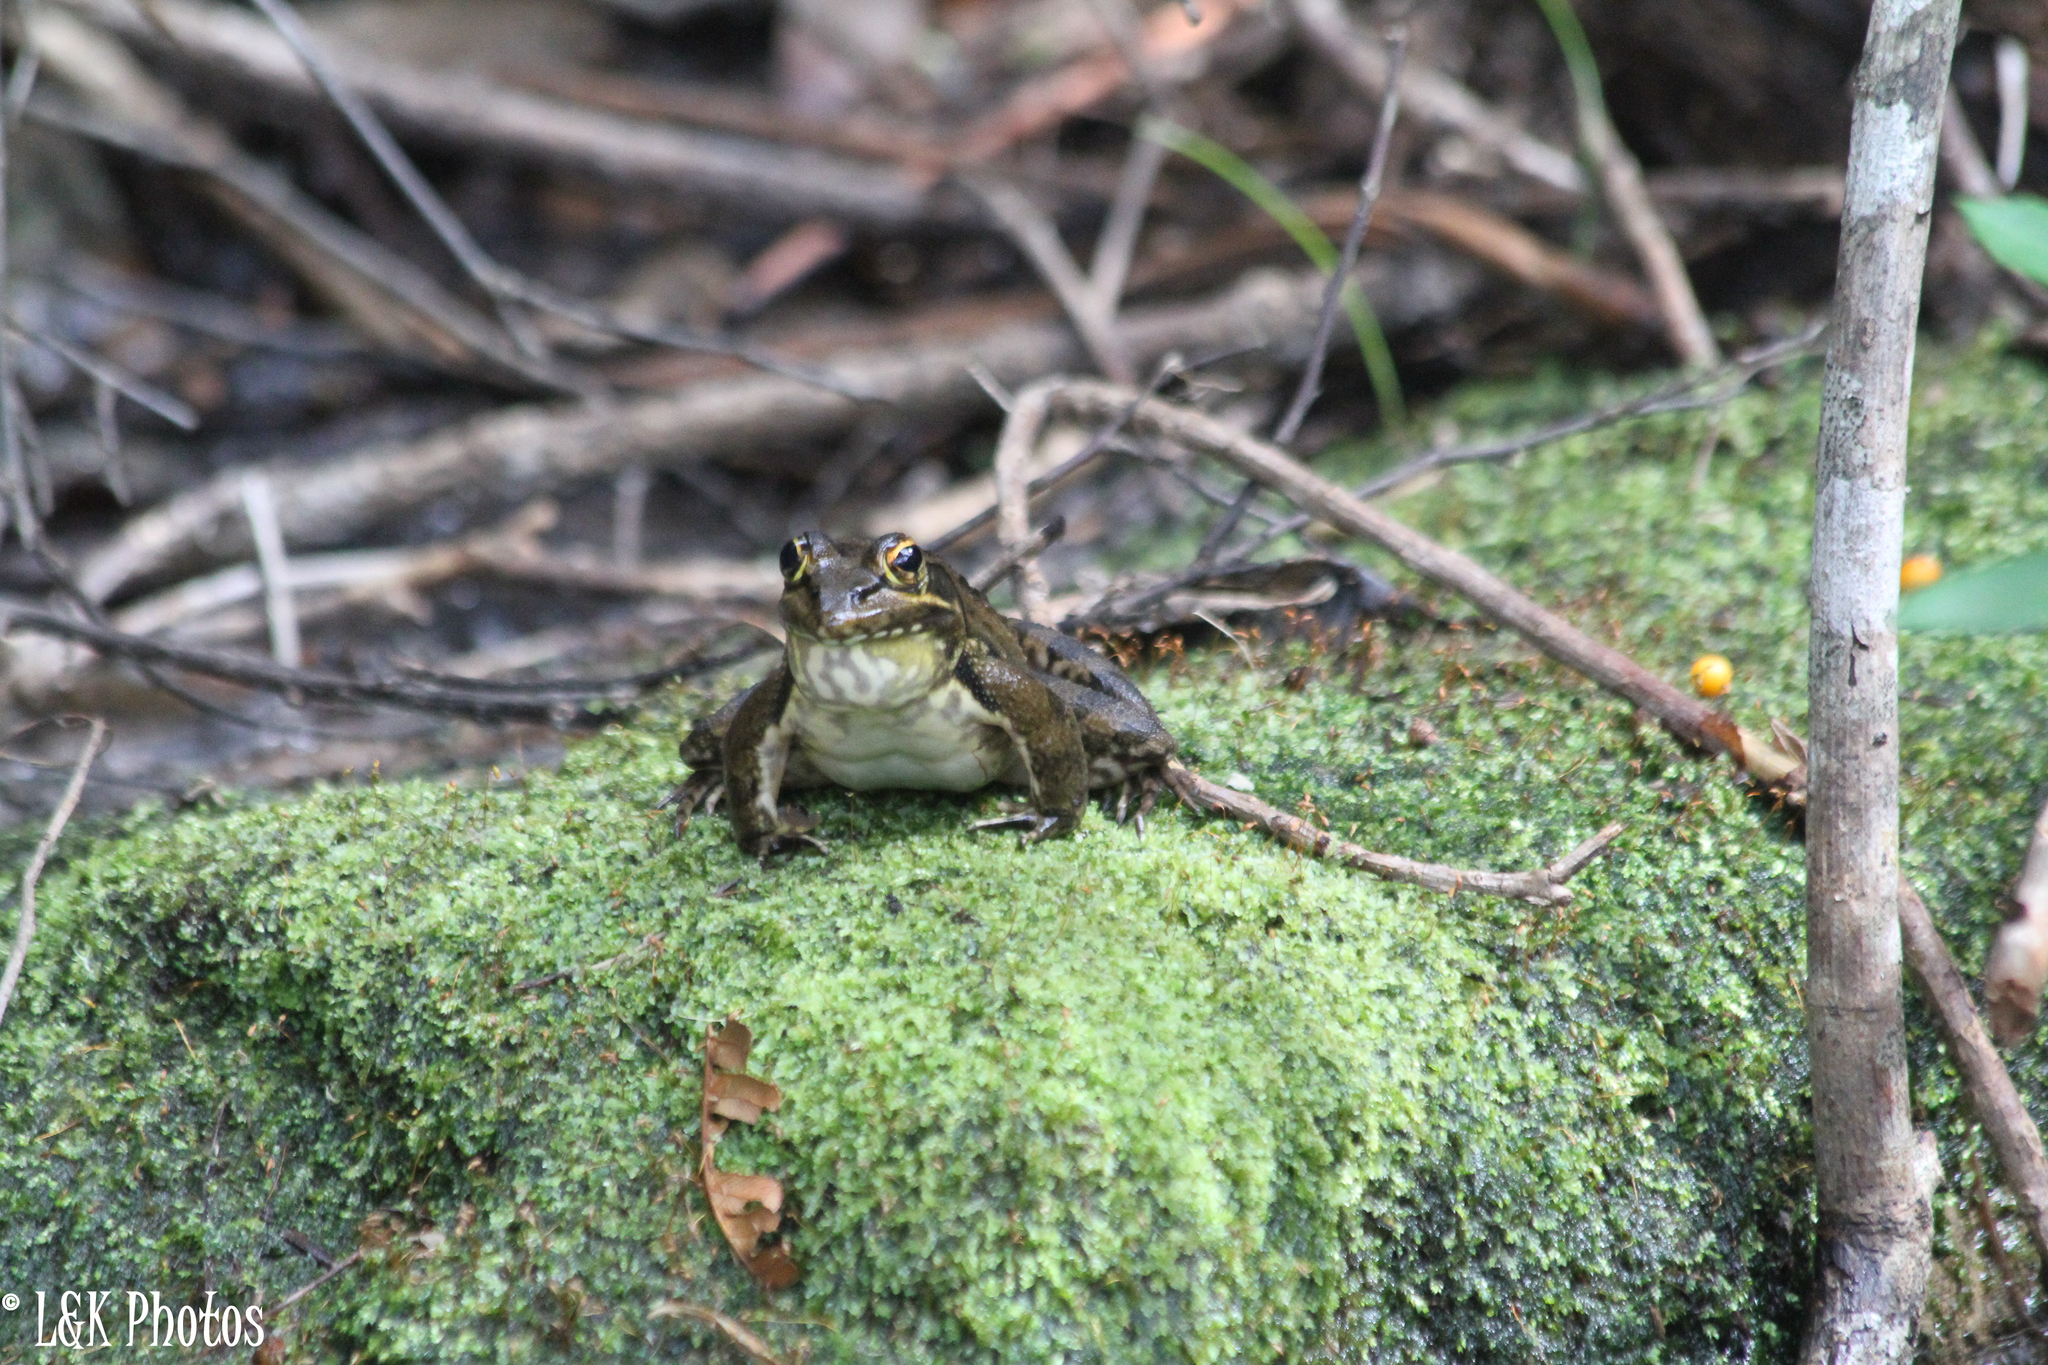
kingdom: Animalia
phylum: Chordata
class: Amphibia
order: Anura
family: Pyxicephalidae
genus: Amietia
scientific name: Amietia fuscigula
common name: Cape rana
